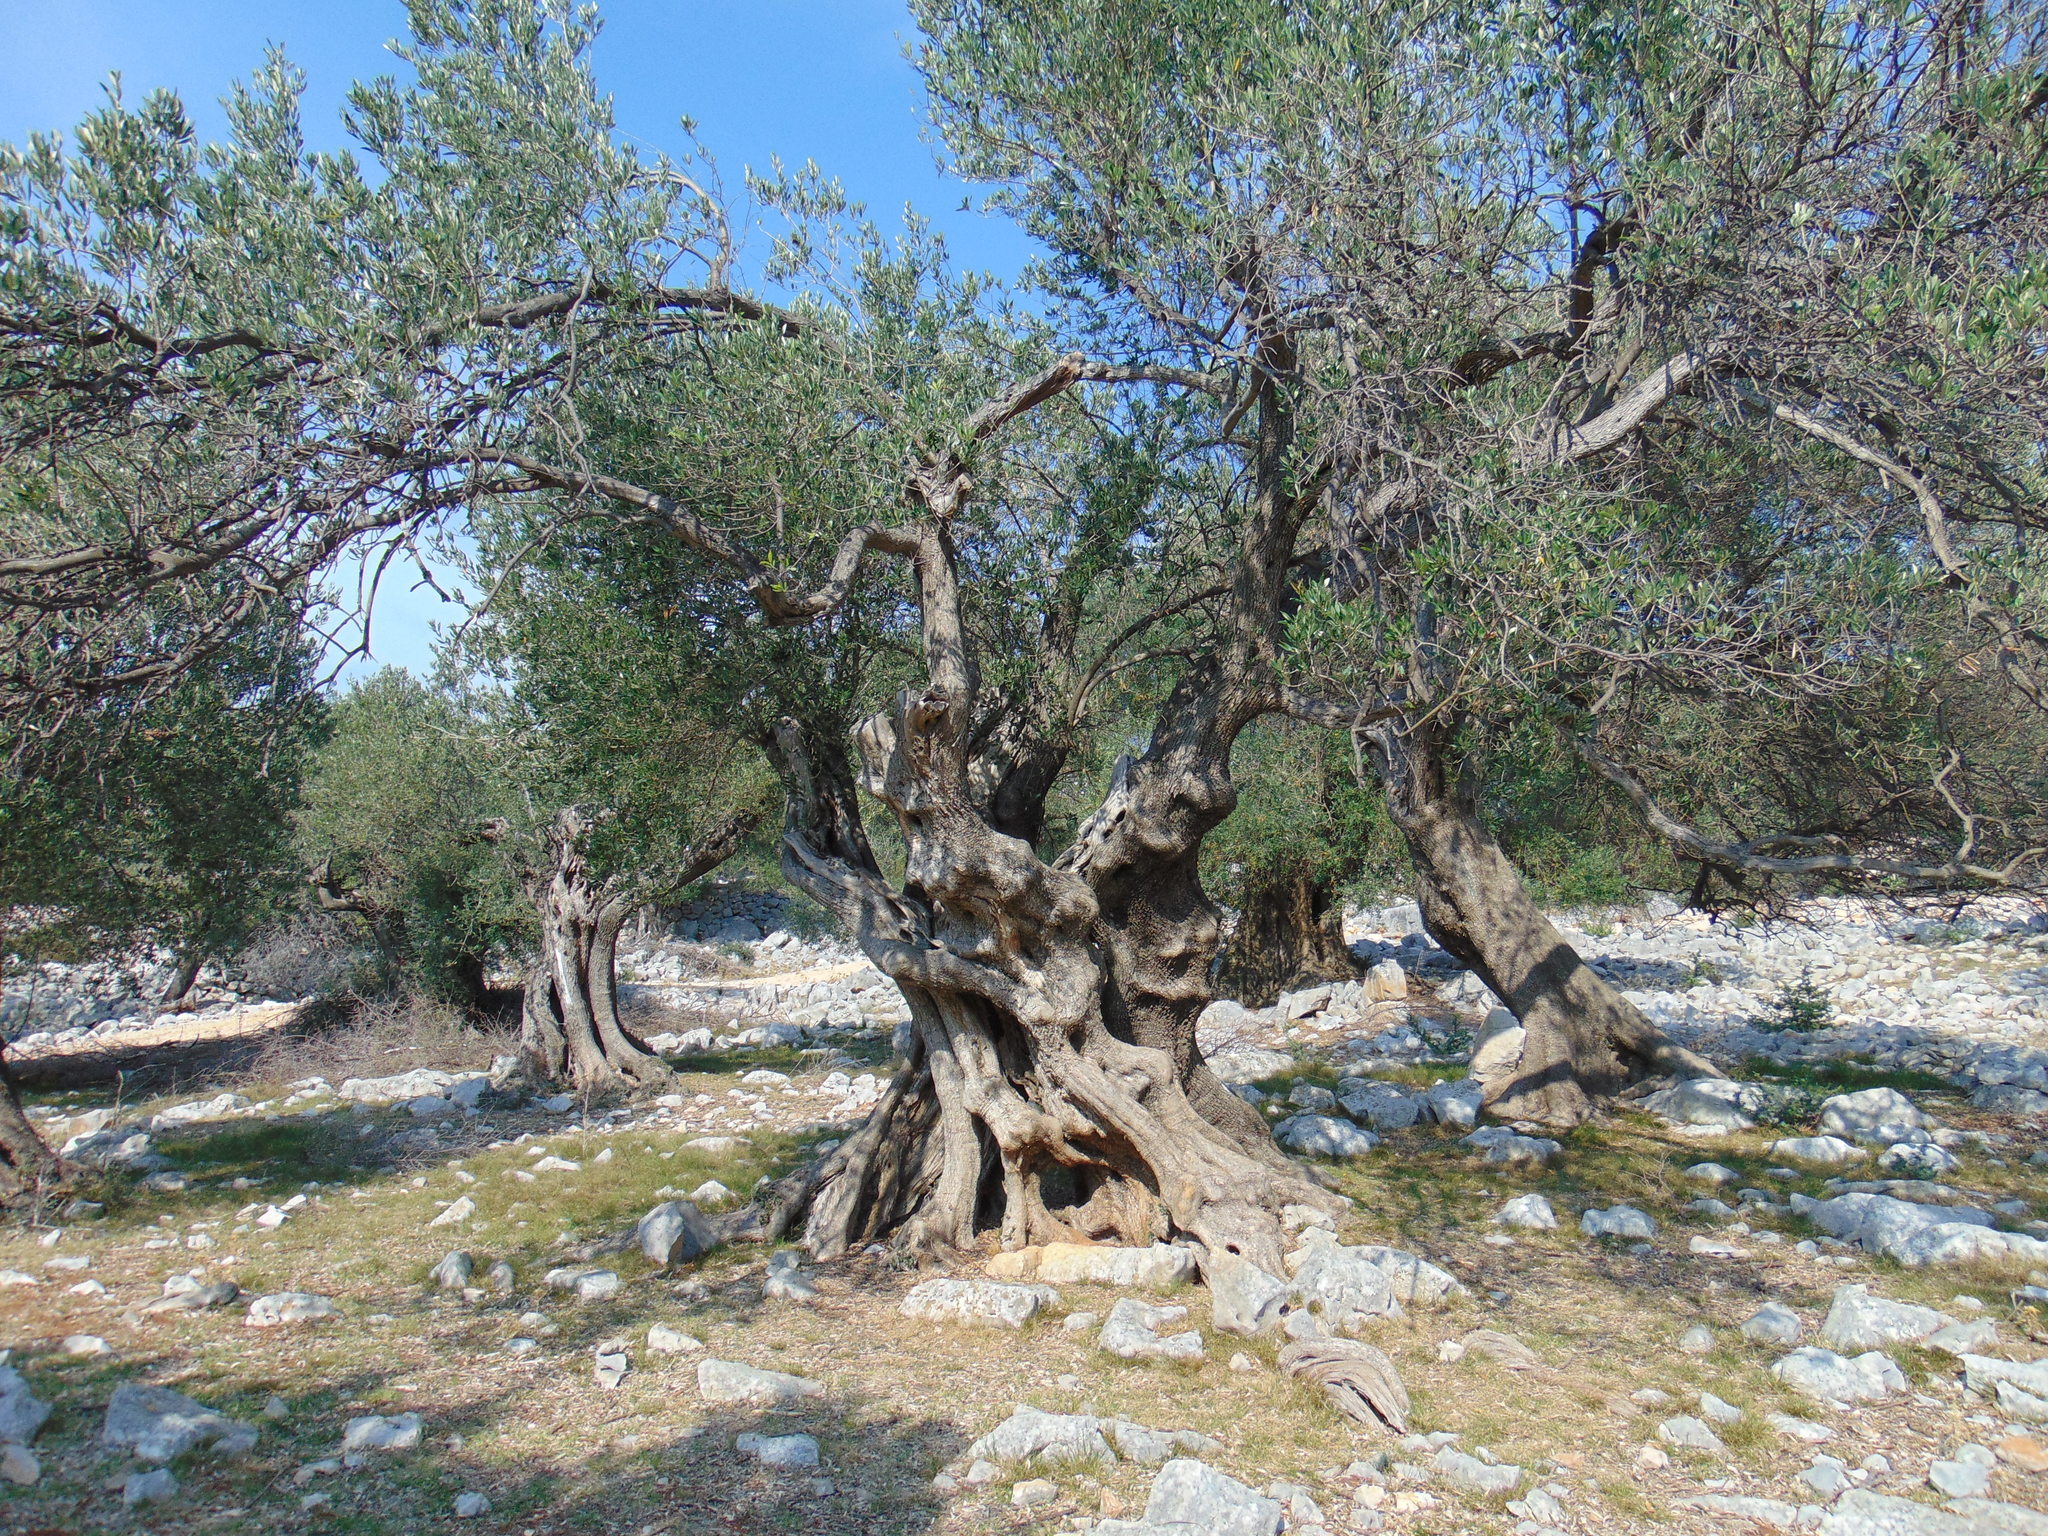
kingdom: Plantae
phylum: Tracheophyta
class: Magnoliopsida
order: Lamiales
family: Oleaceae
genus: Olea
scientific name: Olea europaea
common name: Olive
